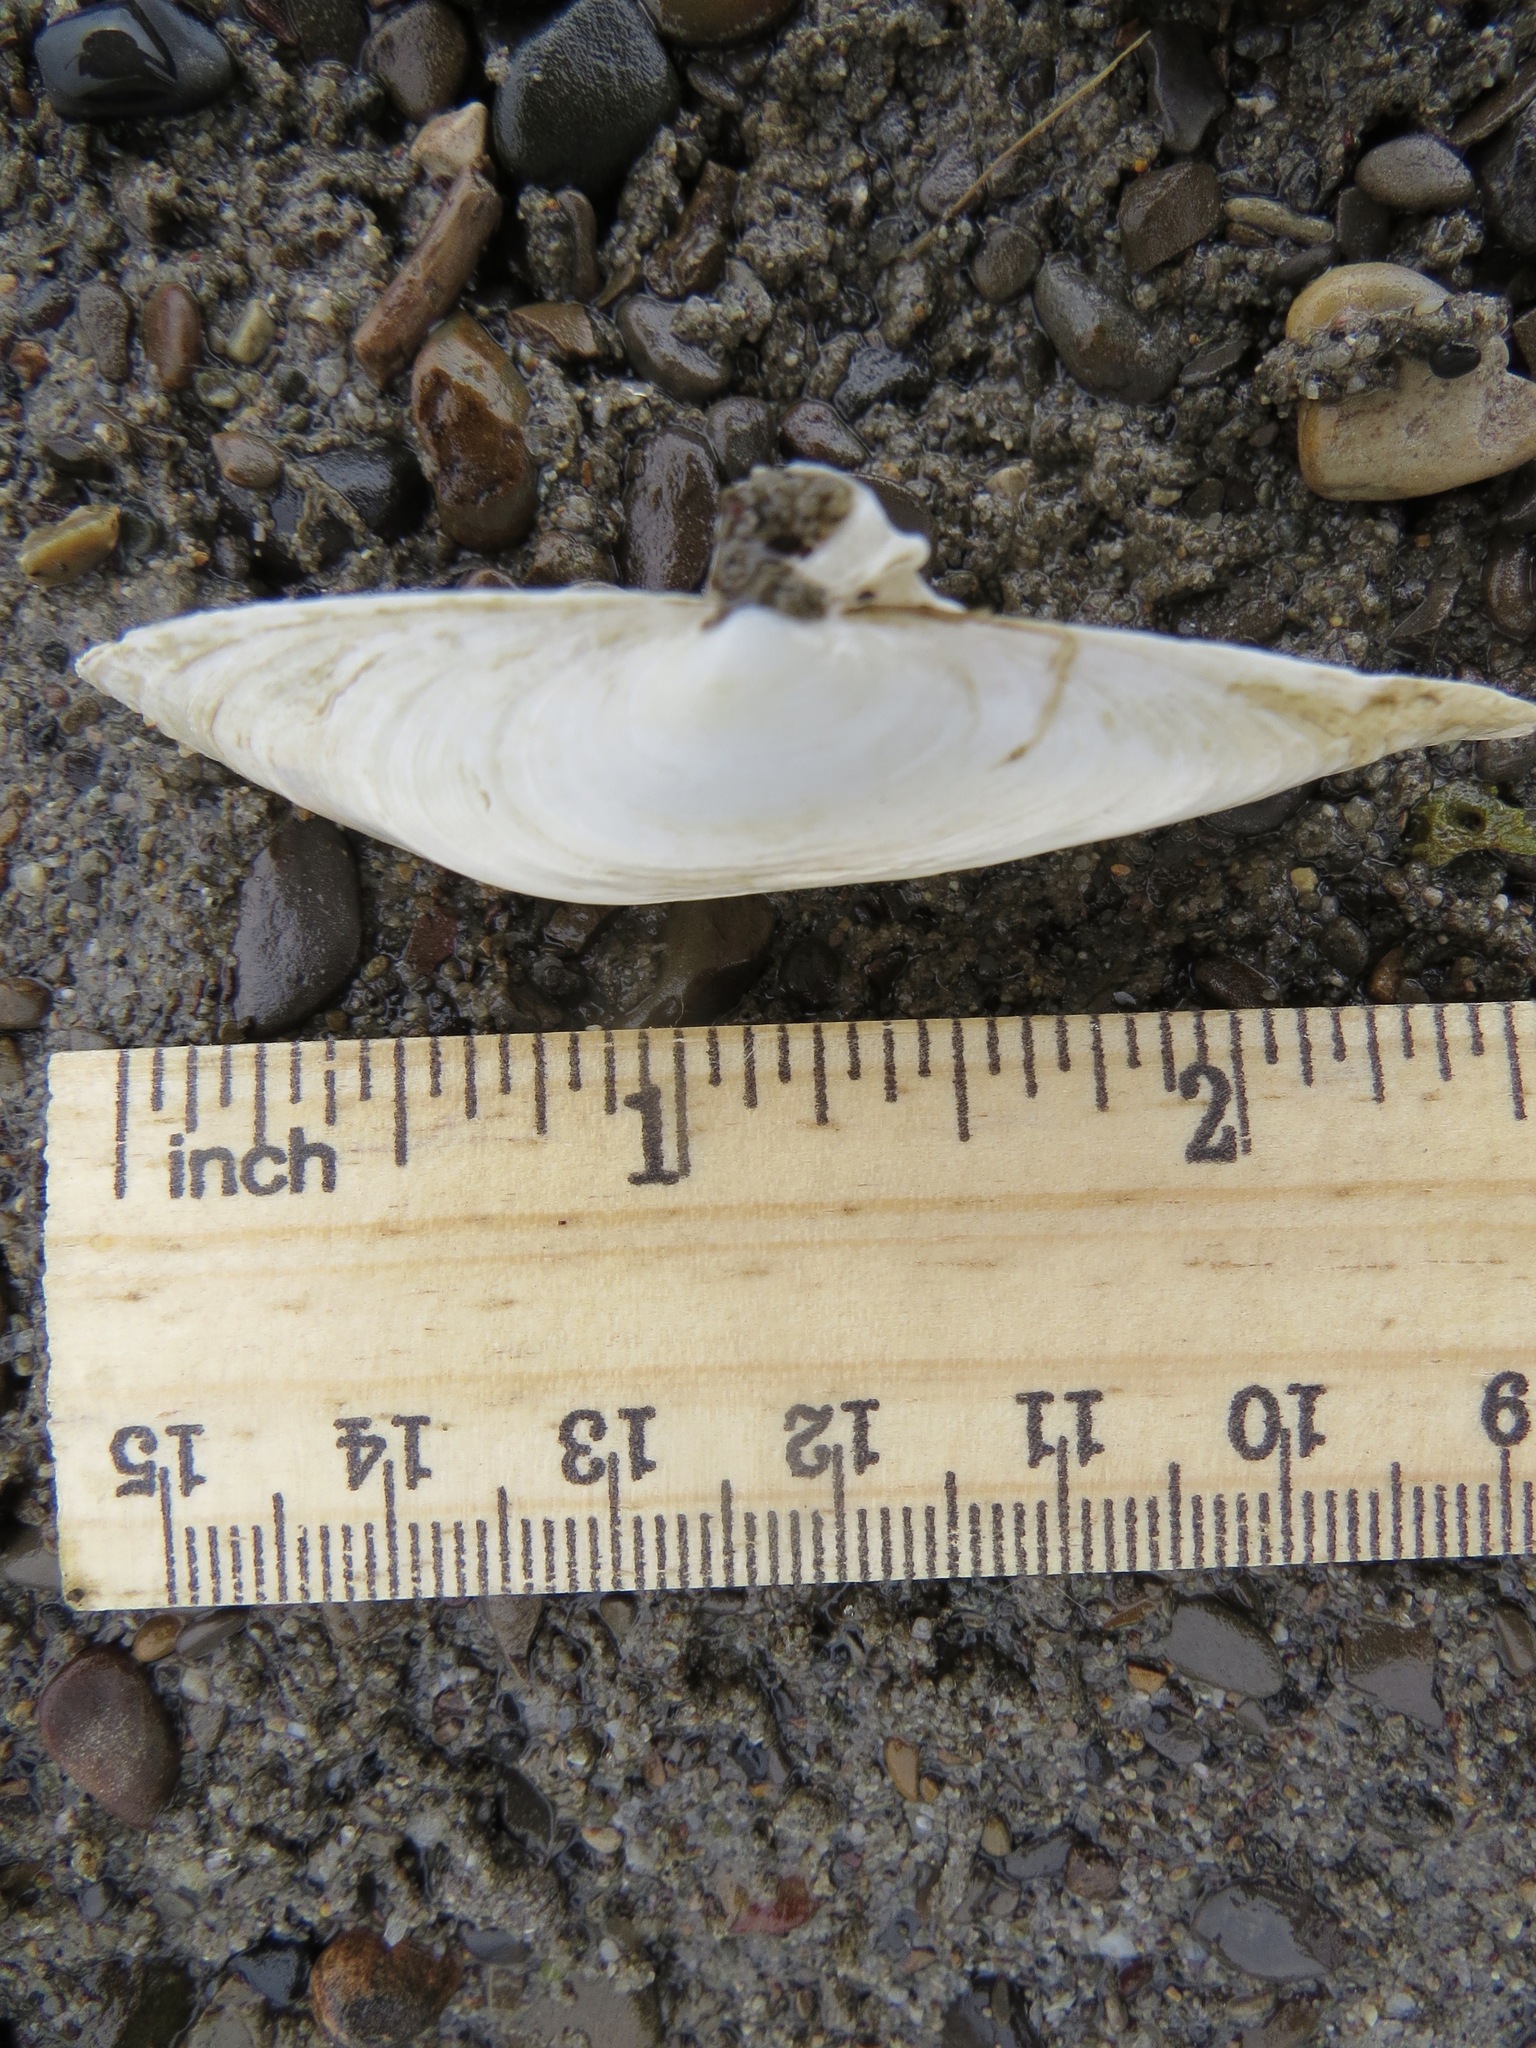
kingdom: Animalia
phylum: Mollusca
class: Bivalvia
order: Myida
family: Myidae
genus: Mya
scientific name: Mya arenaria
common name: Soft-shelled clam
